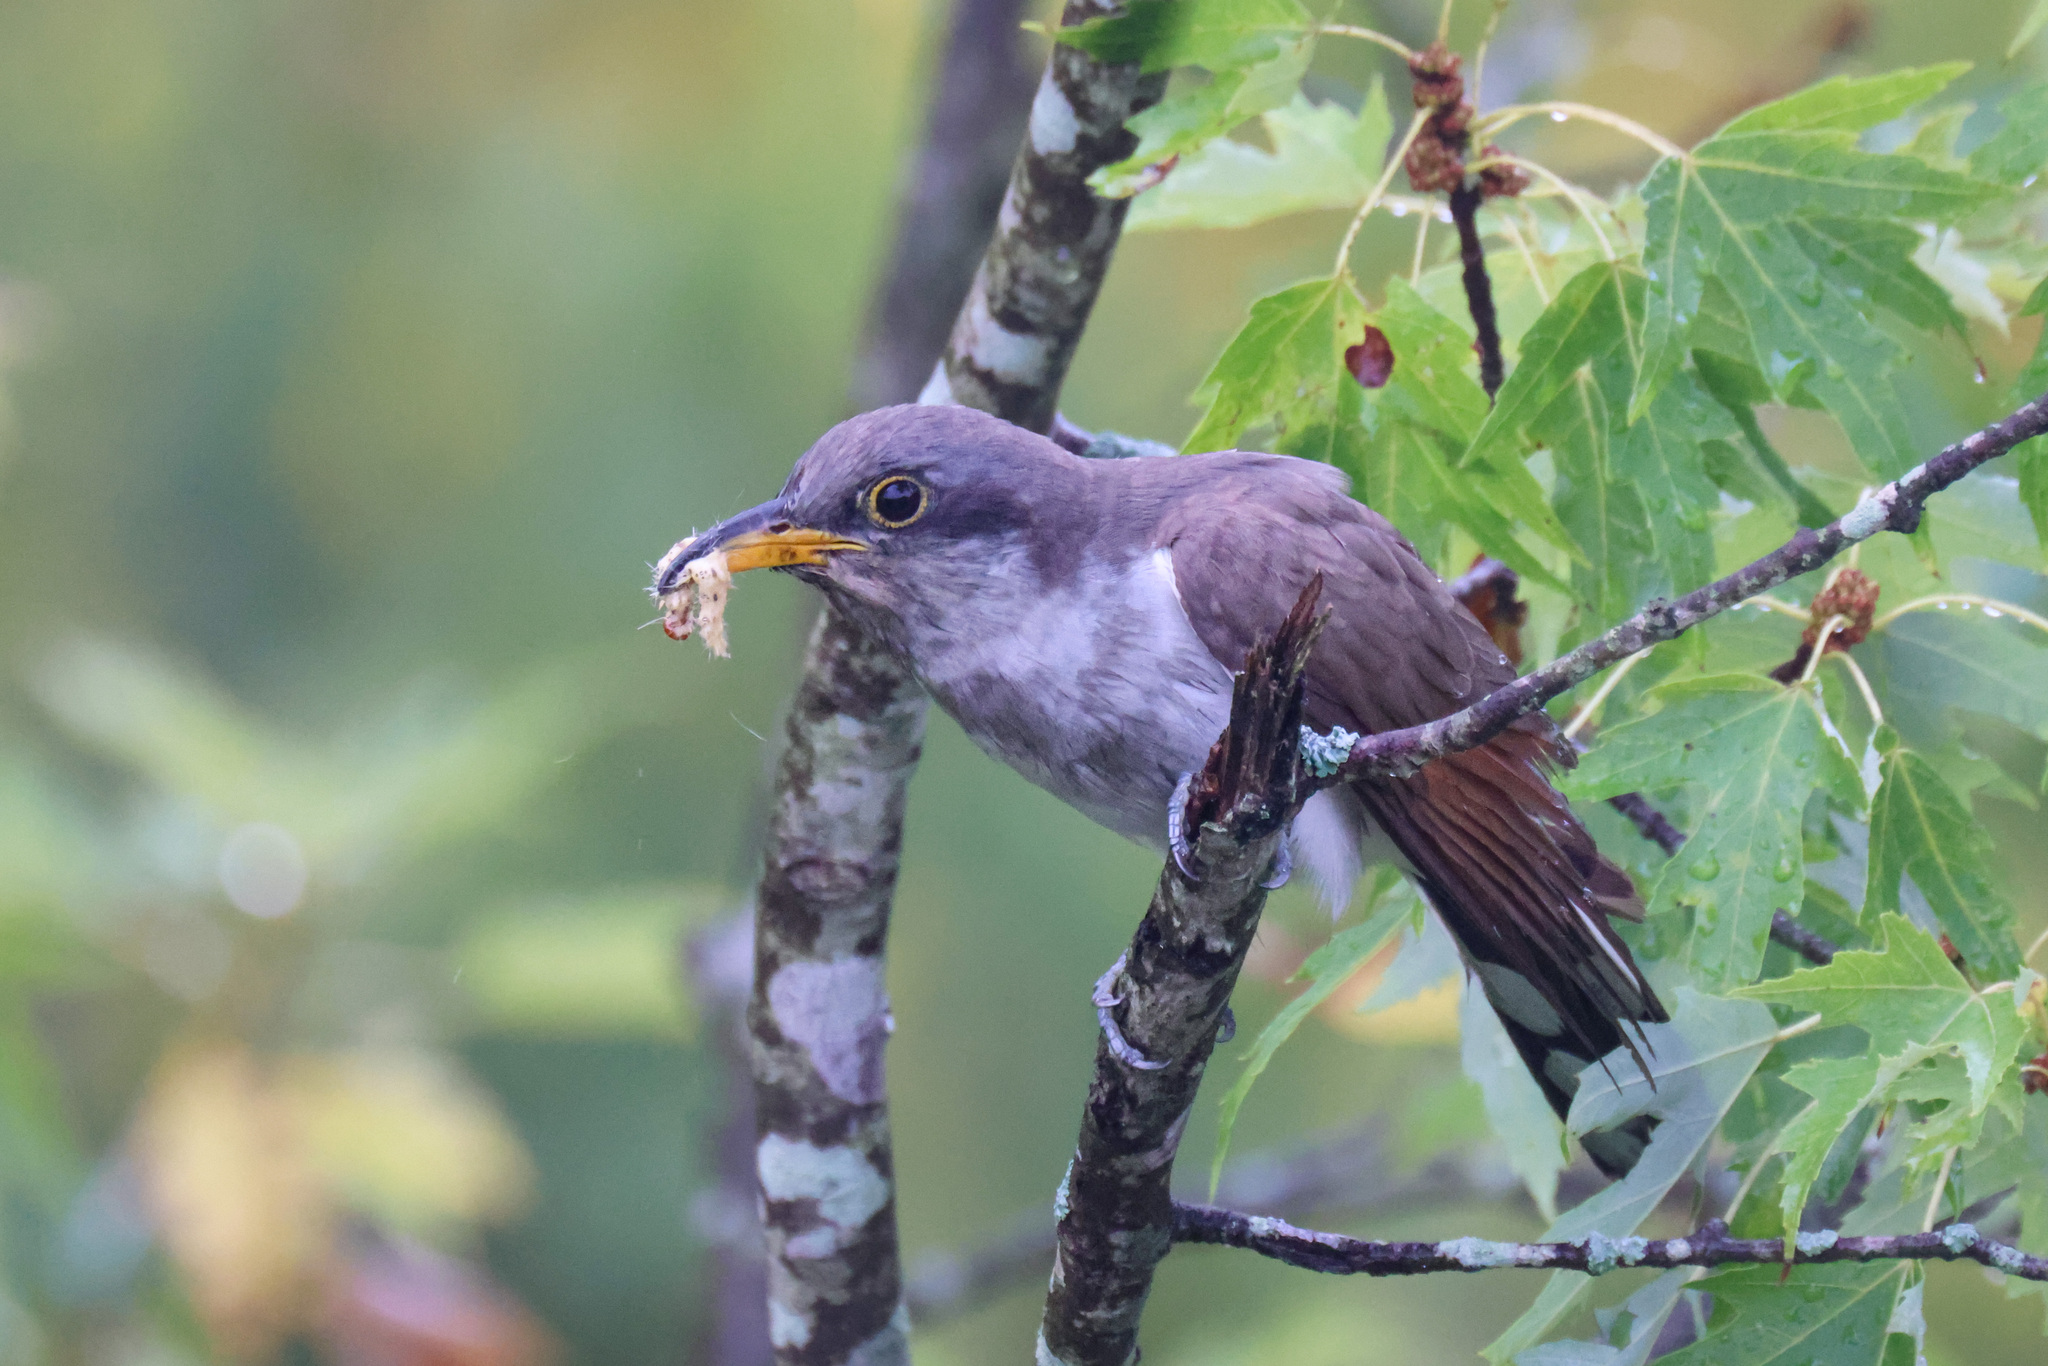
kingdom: Animalia
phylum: Chordata
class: Aves
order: Cuculiformes
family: Cuculidae
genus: Coccyzus
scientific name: Coccyzus americanus
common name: Yellow-billed cuckoo
